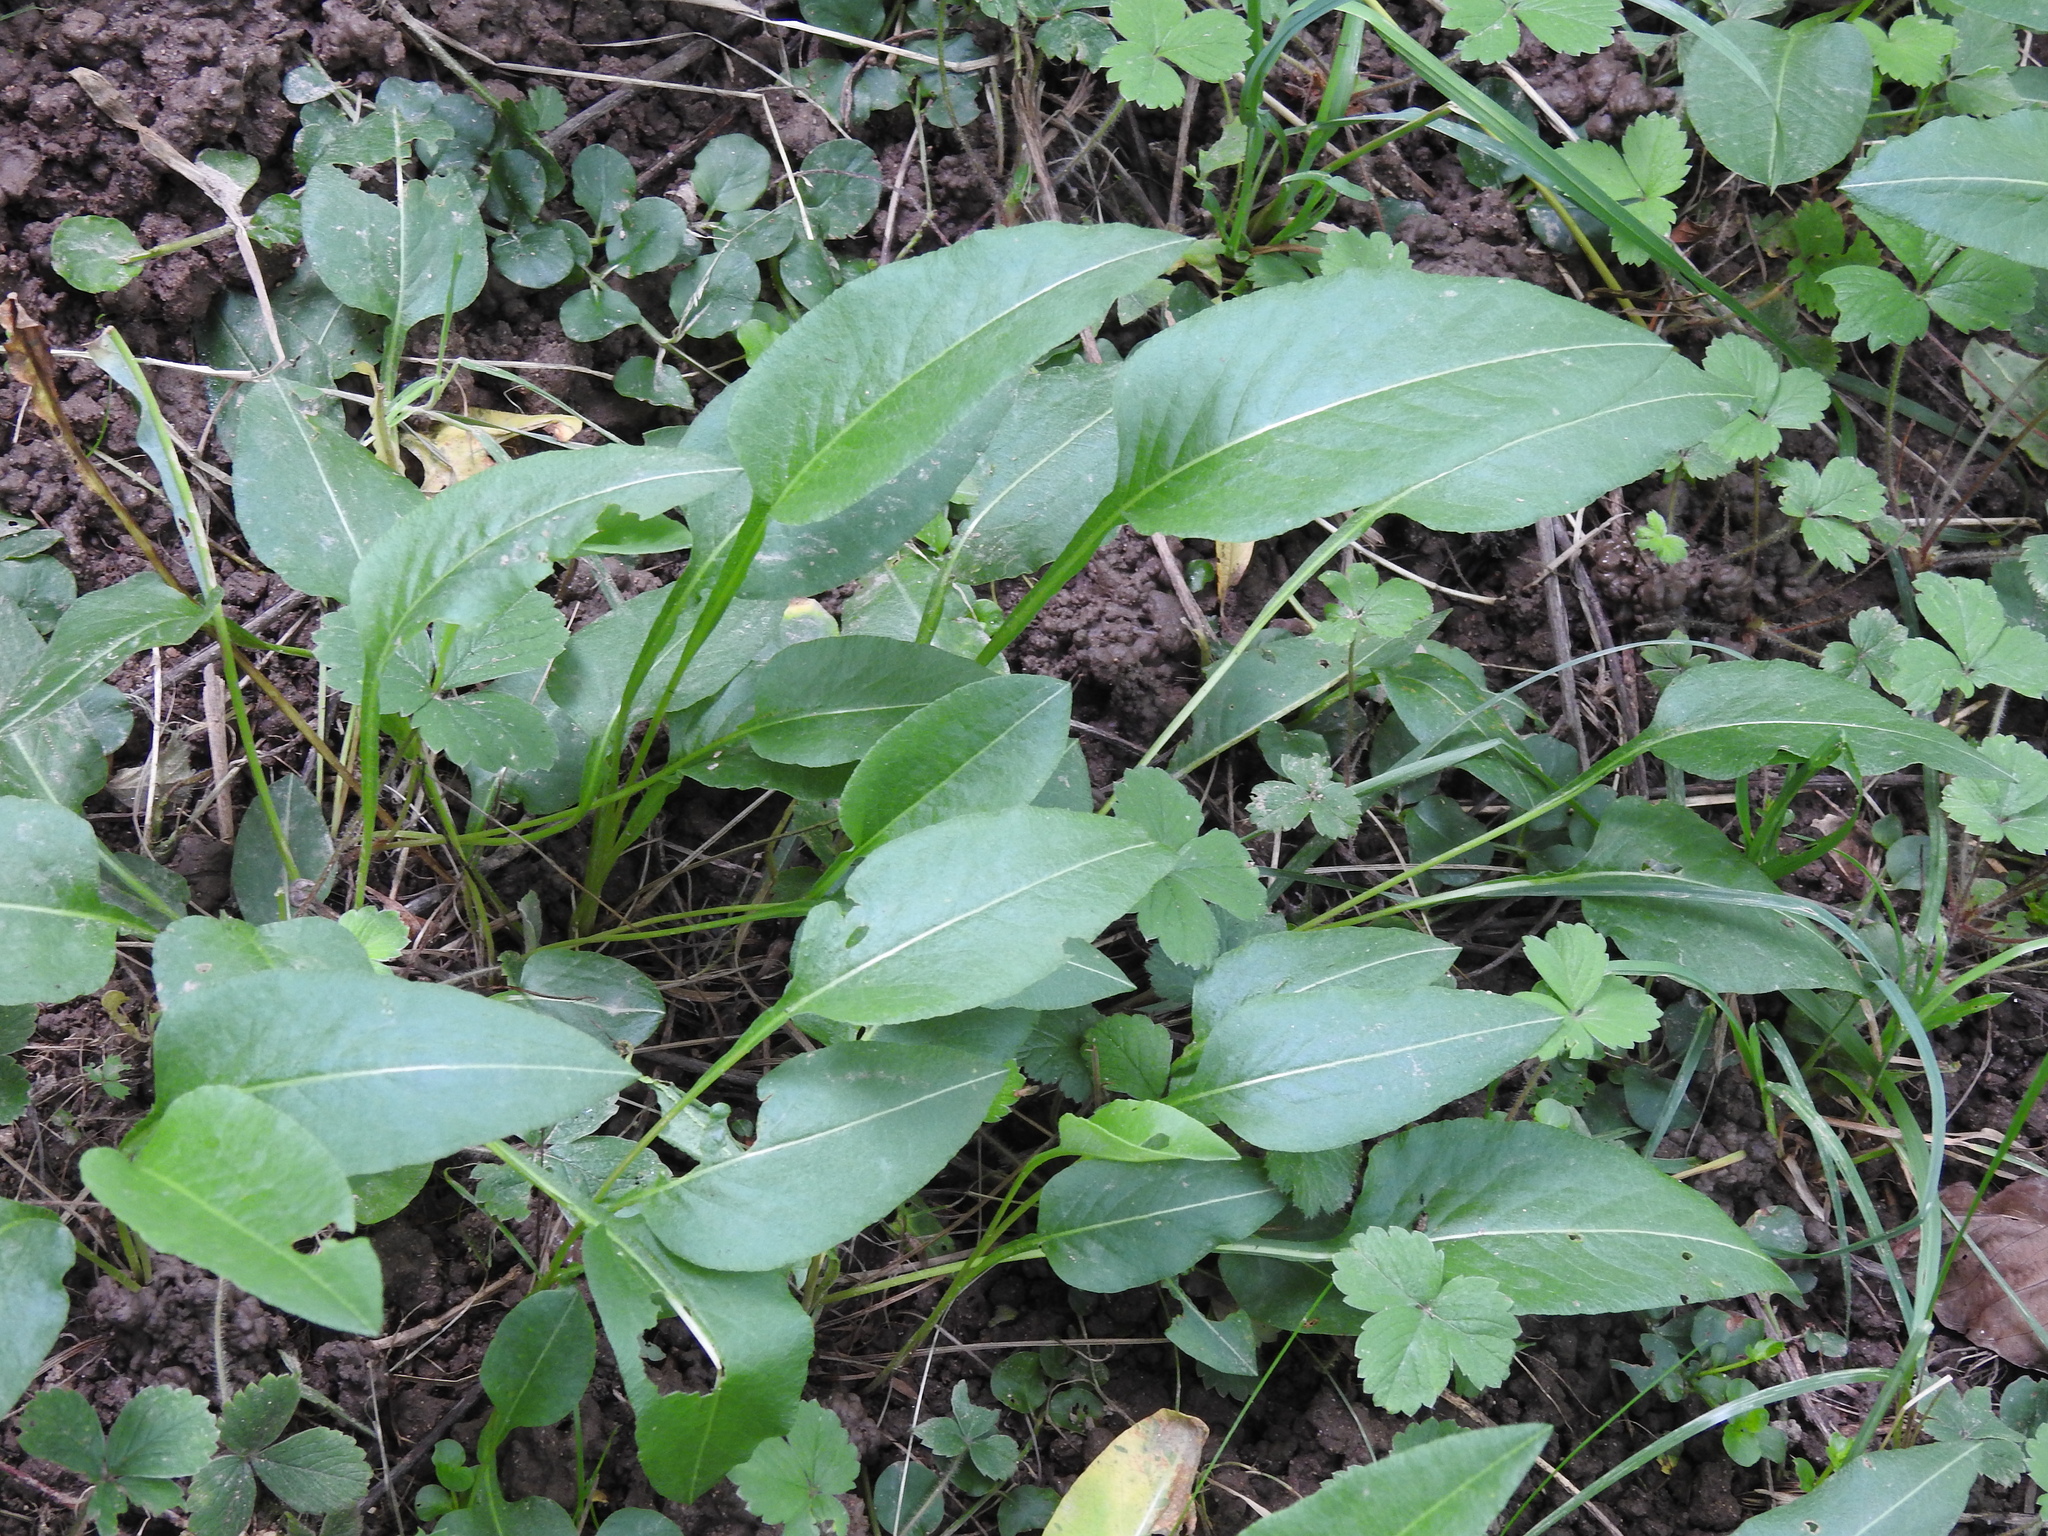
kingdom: Plantae
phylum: Tracheophyta
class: Magnoliopsida
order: Caryophyllales
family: Polygonaceae
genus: Bistorta
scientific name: Bistorta officinalis
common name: Common bistort
